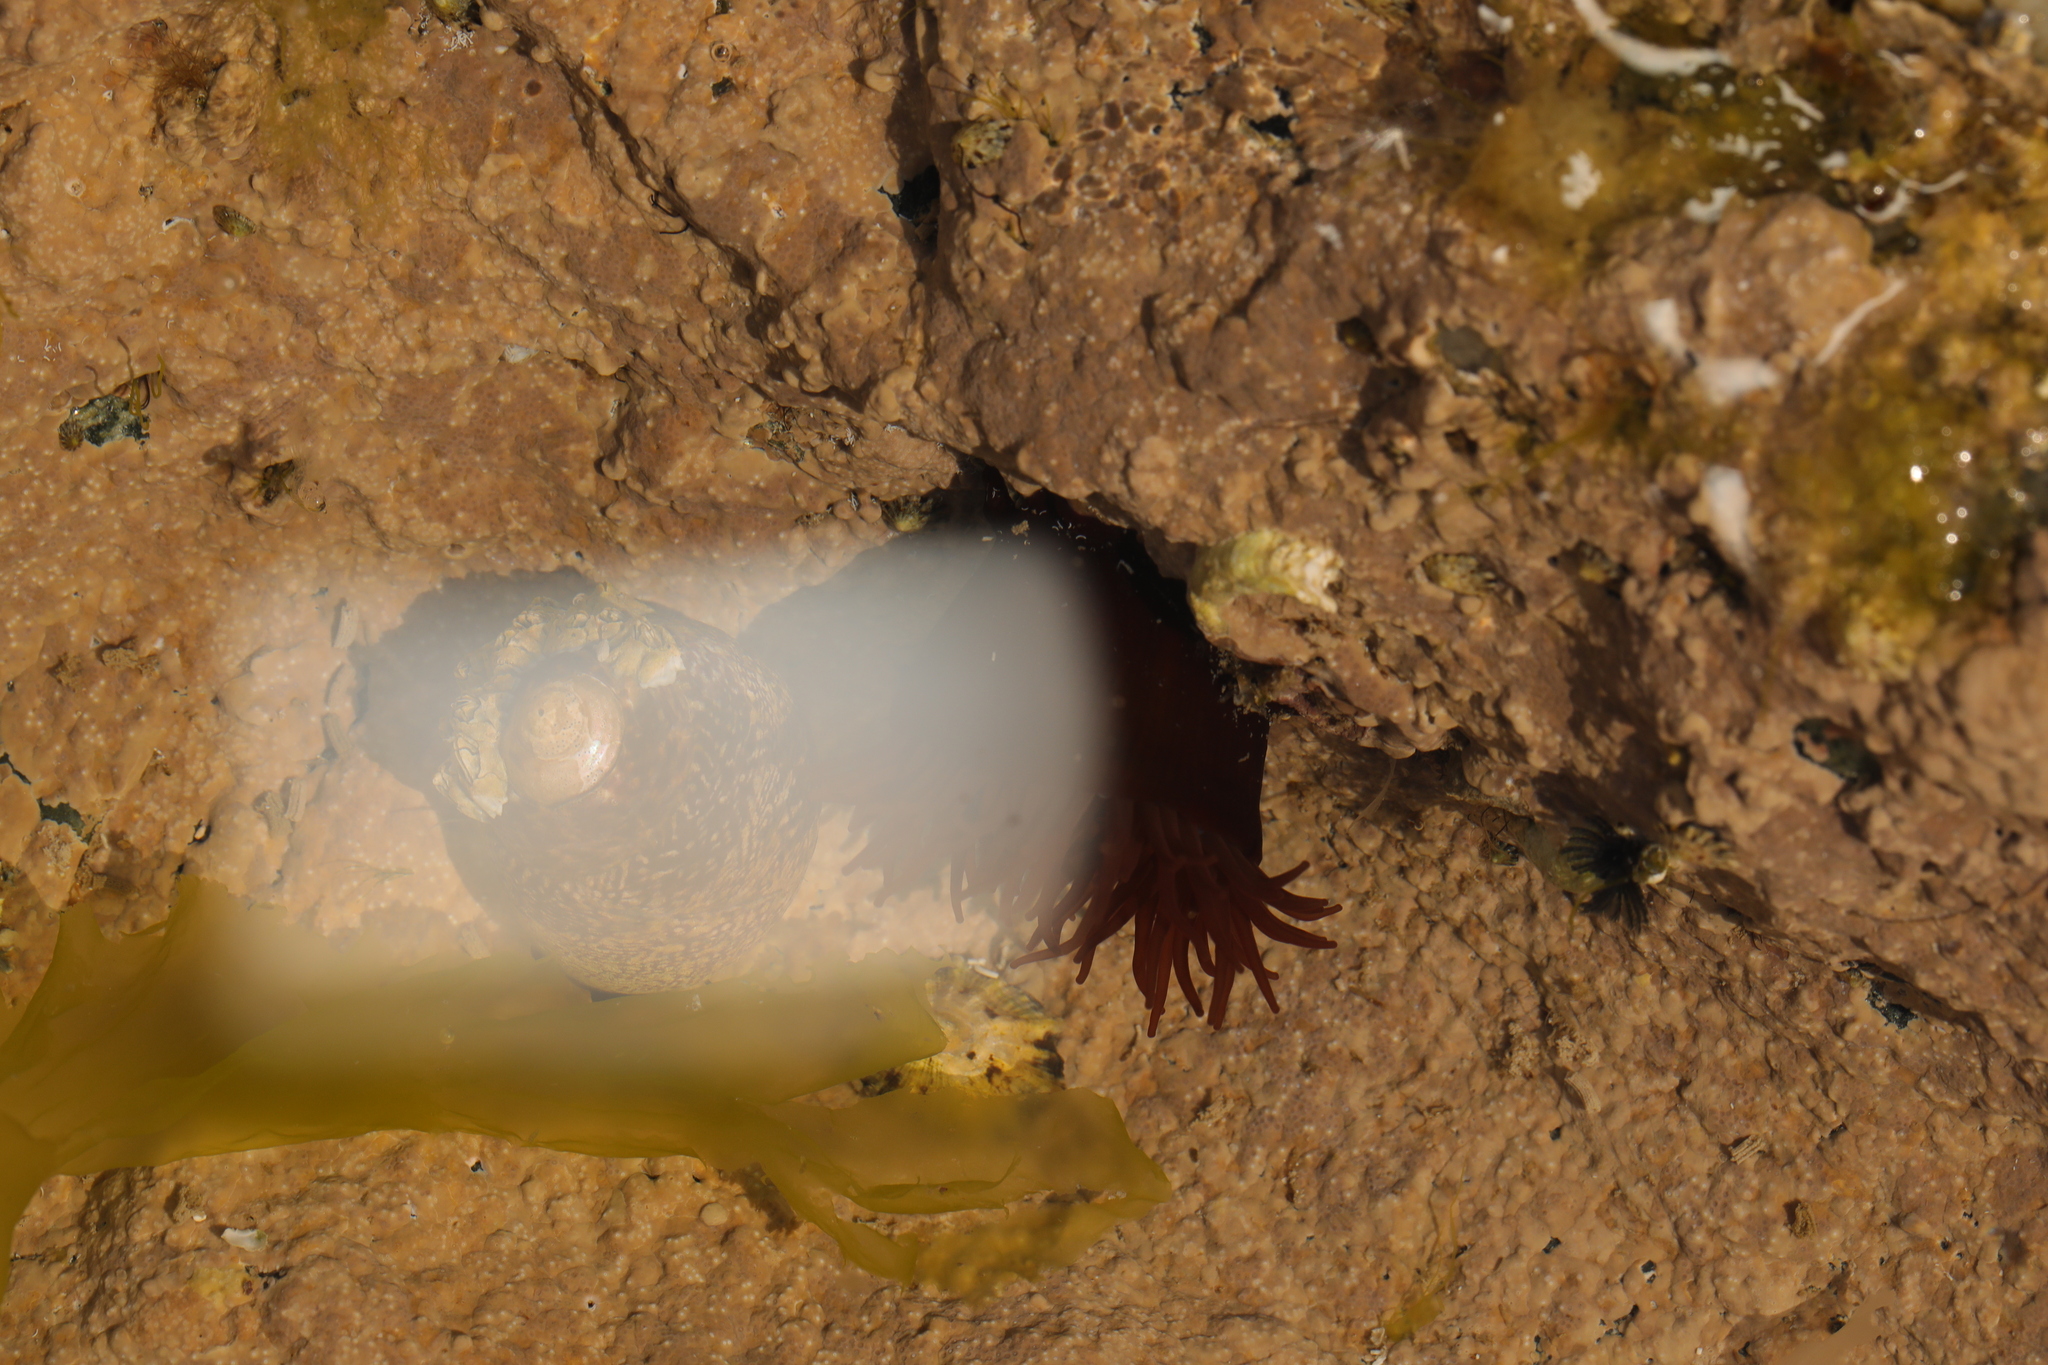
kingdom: Animalia
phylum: Cnidaria
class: Anthozoa
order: Actiniaria
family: Actiniidae
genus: Actinia
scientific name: Actinia equina
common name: Beadlet anemone
